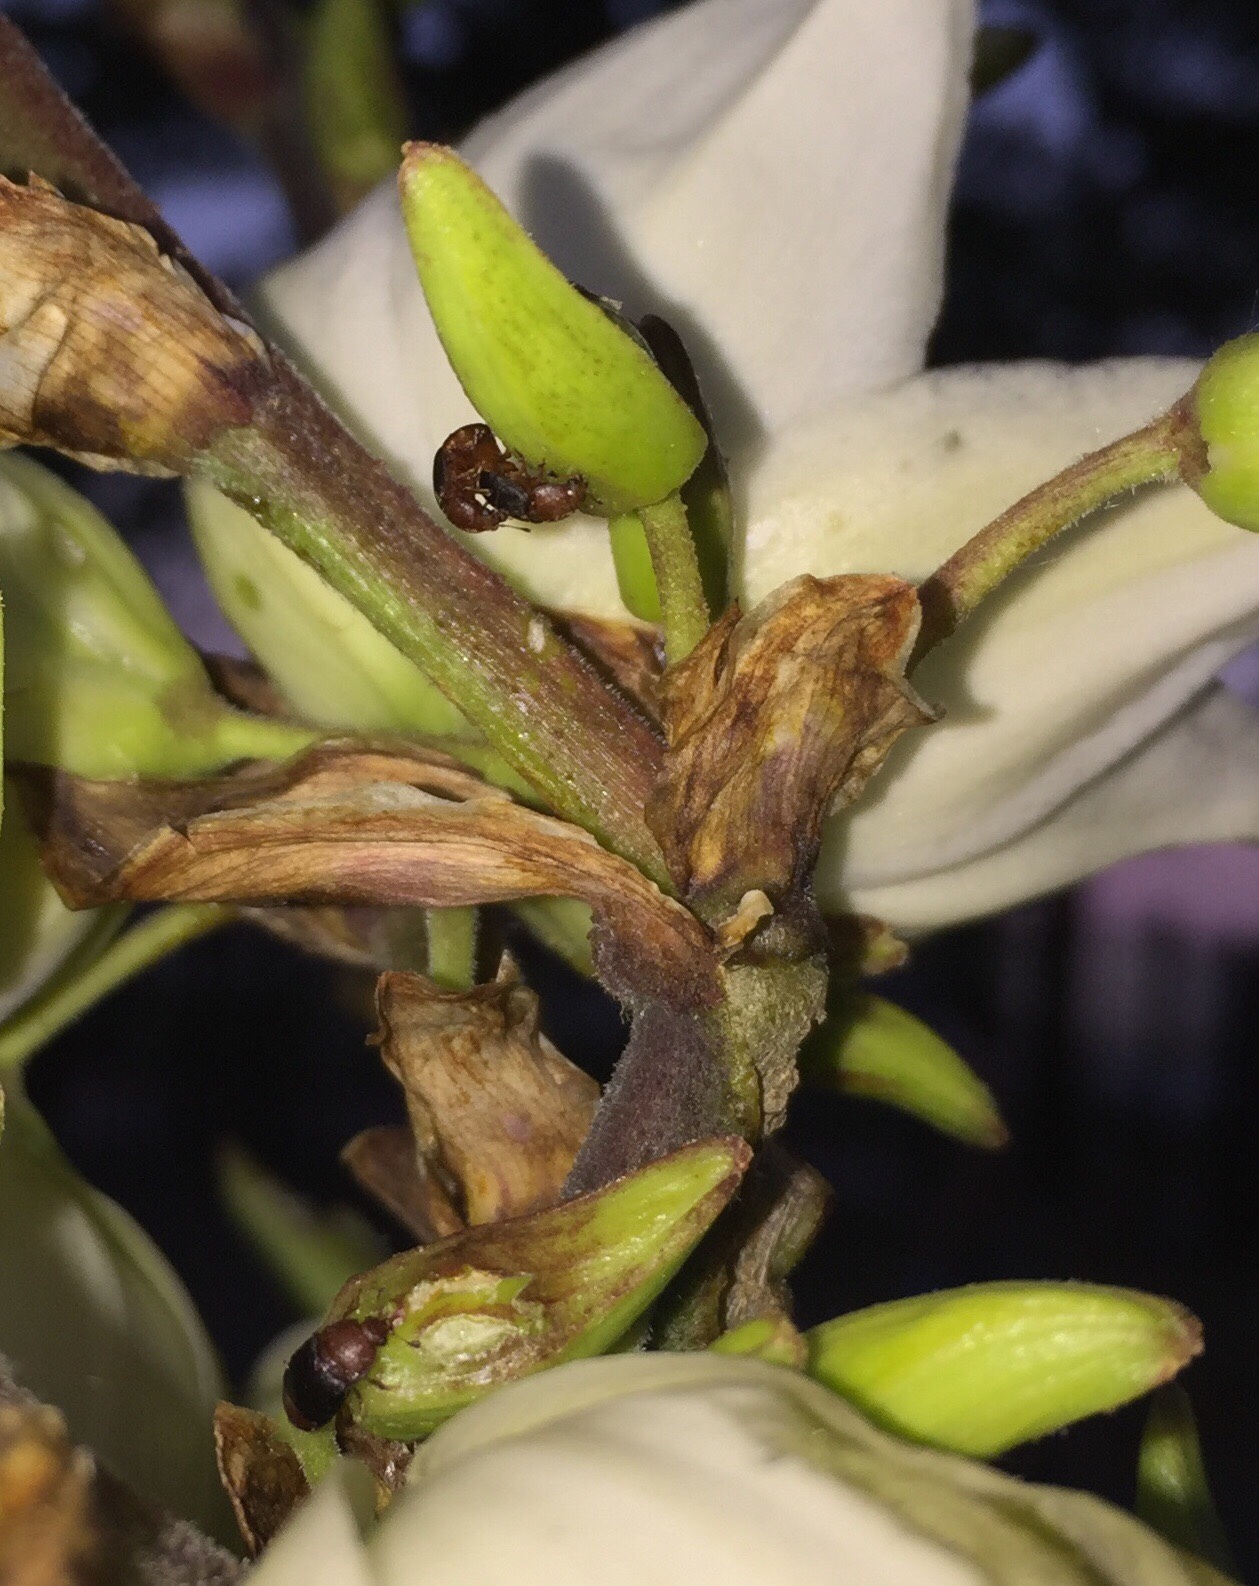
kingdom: Animalia
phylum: Arthropoda
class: Insecta
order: Coleoptera
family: Nitidulidae
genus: Carpophilus
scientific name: Carpophilus
